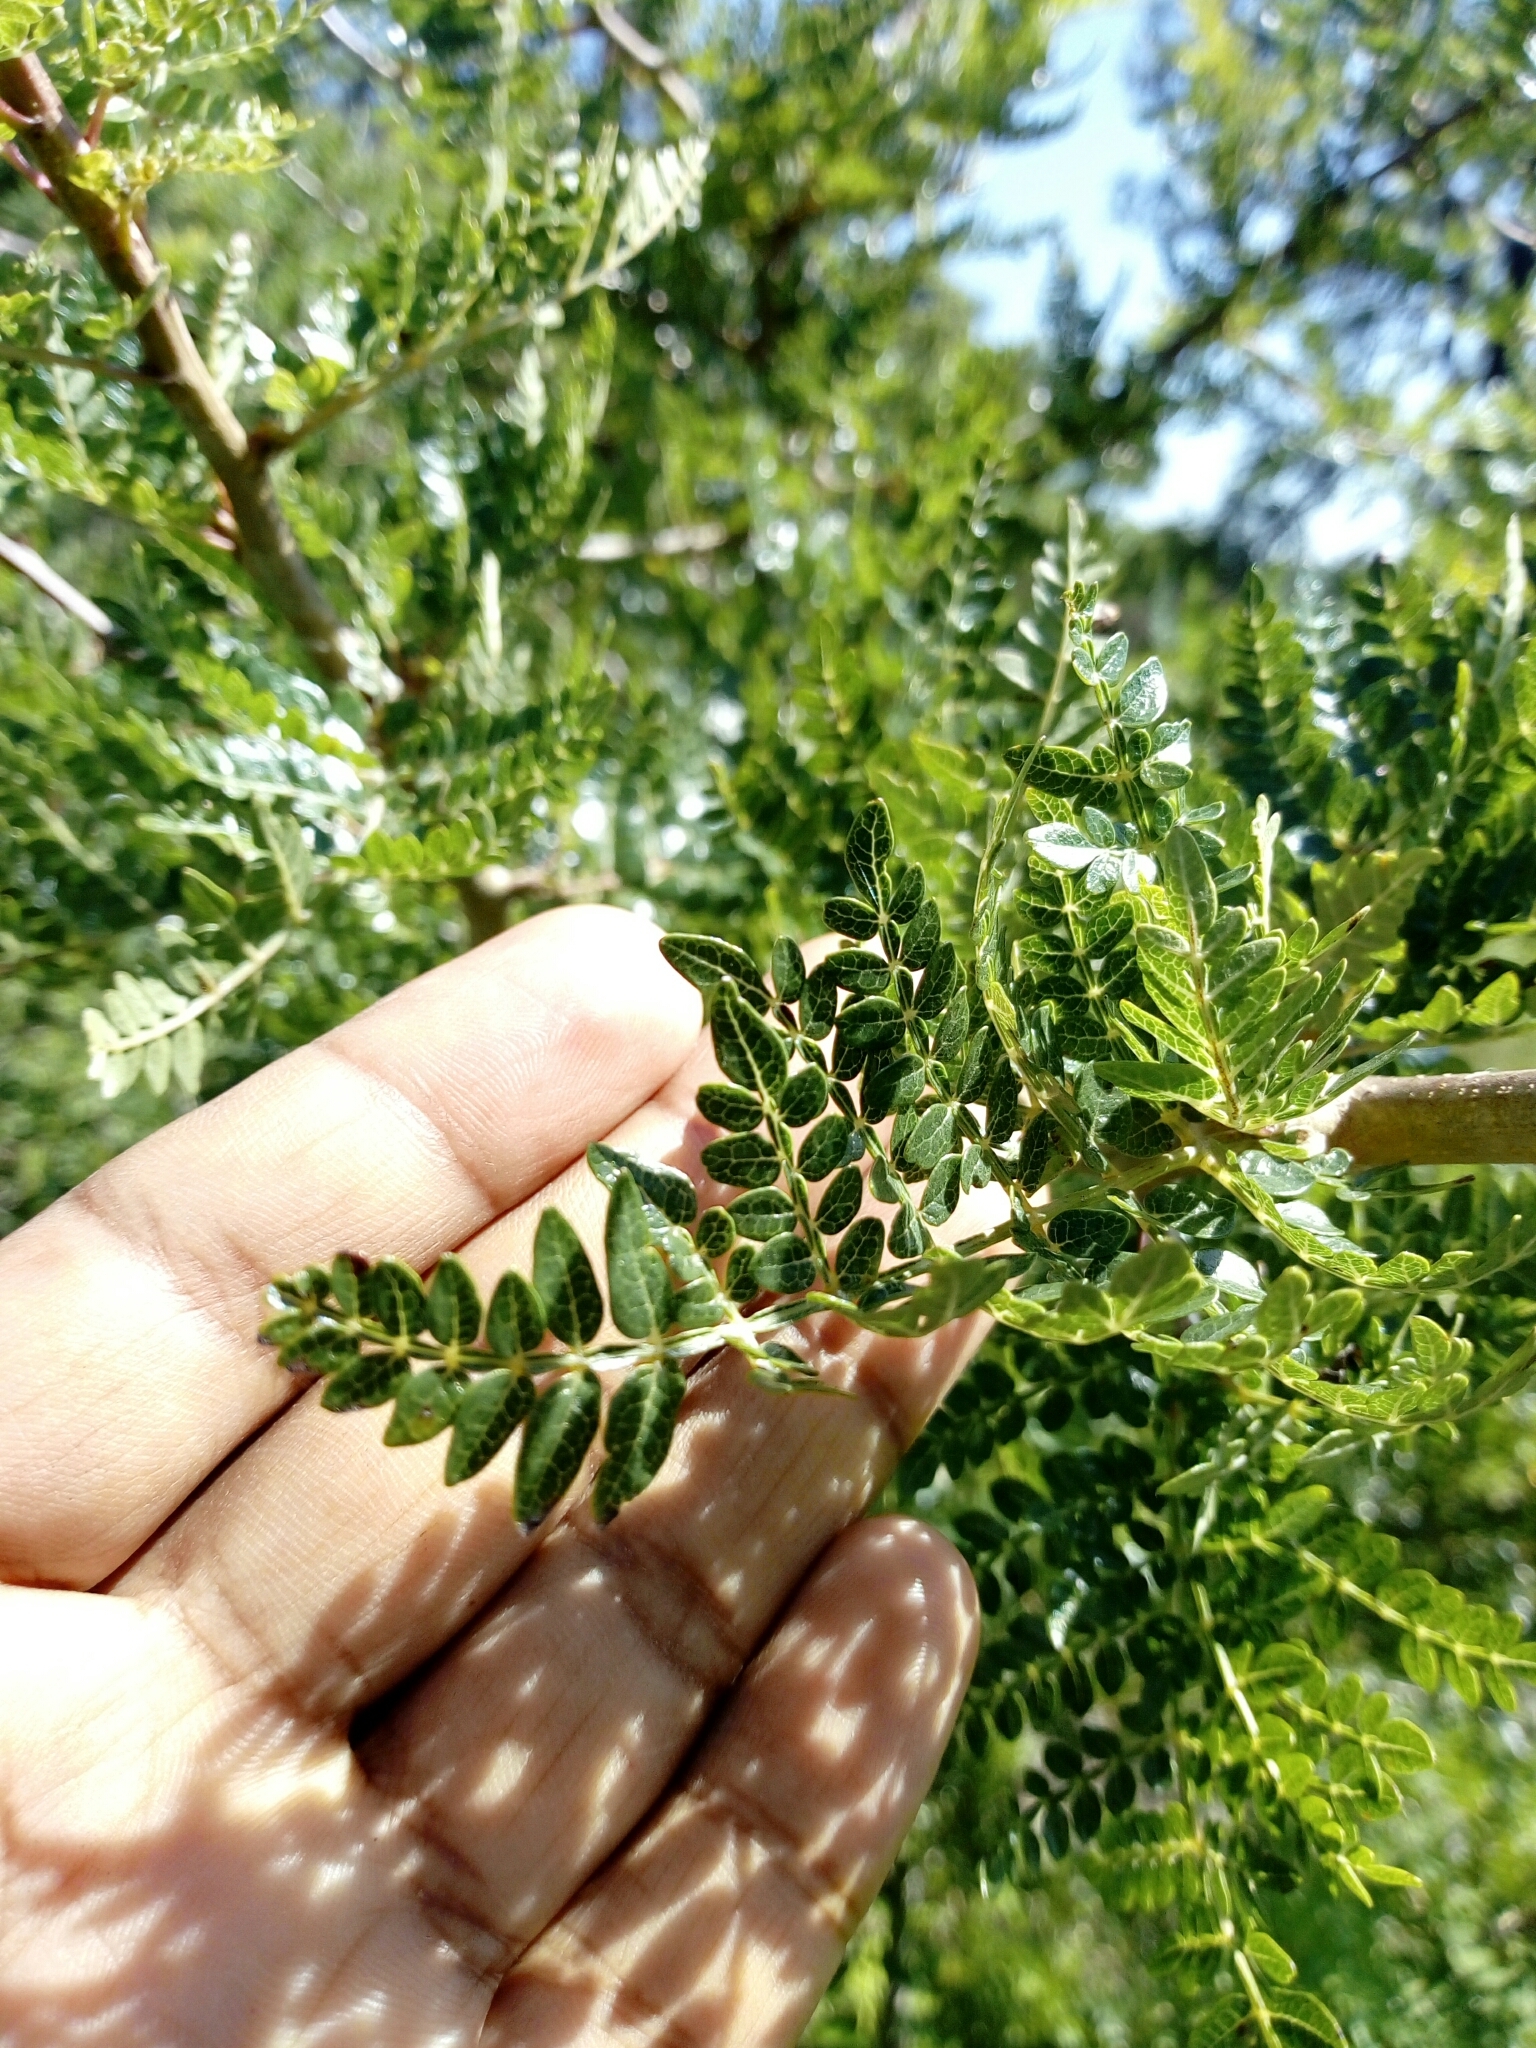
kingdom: Plantae
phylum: Tracheophyta
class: Magnoliopsida
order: Sapindales
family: Burseraceae
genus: Bursera
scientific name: Bursera bipinnata
